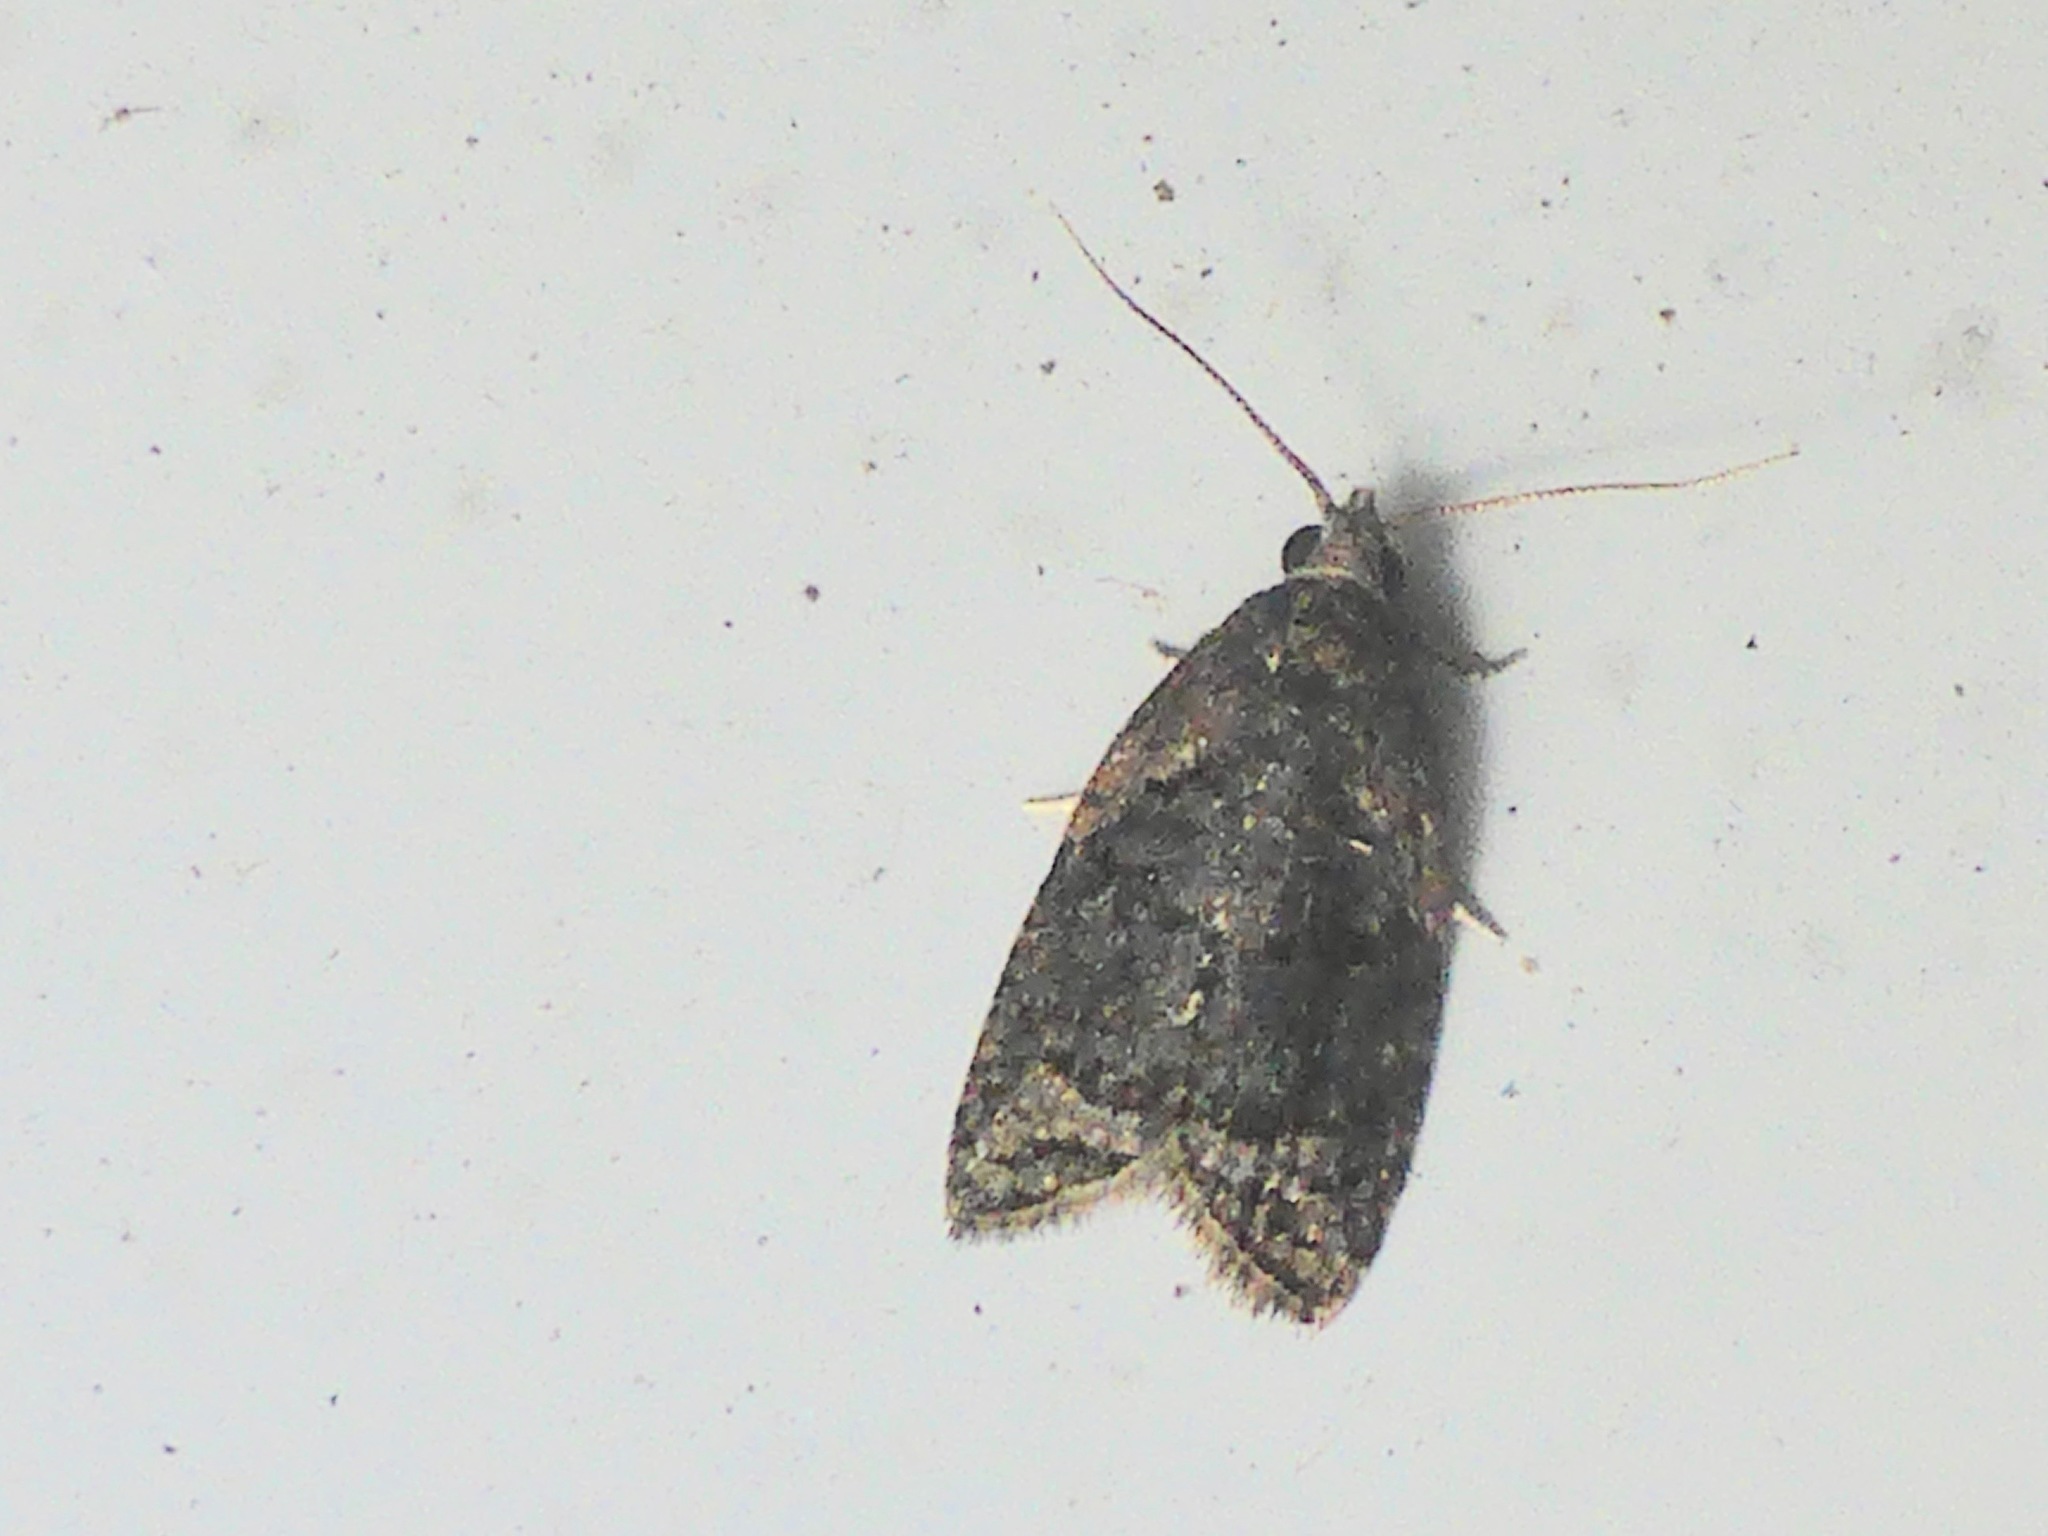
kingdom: Animalia
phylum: Arthropoda
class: Insecta
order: Lepidoptera
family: Tortricidae
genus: Capua
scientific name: Capua intractana
